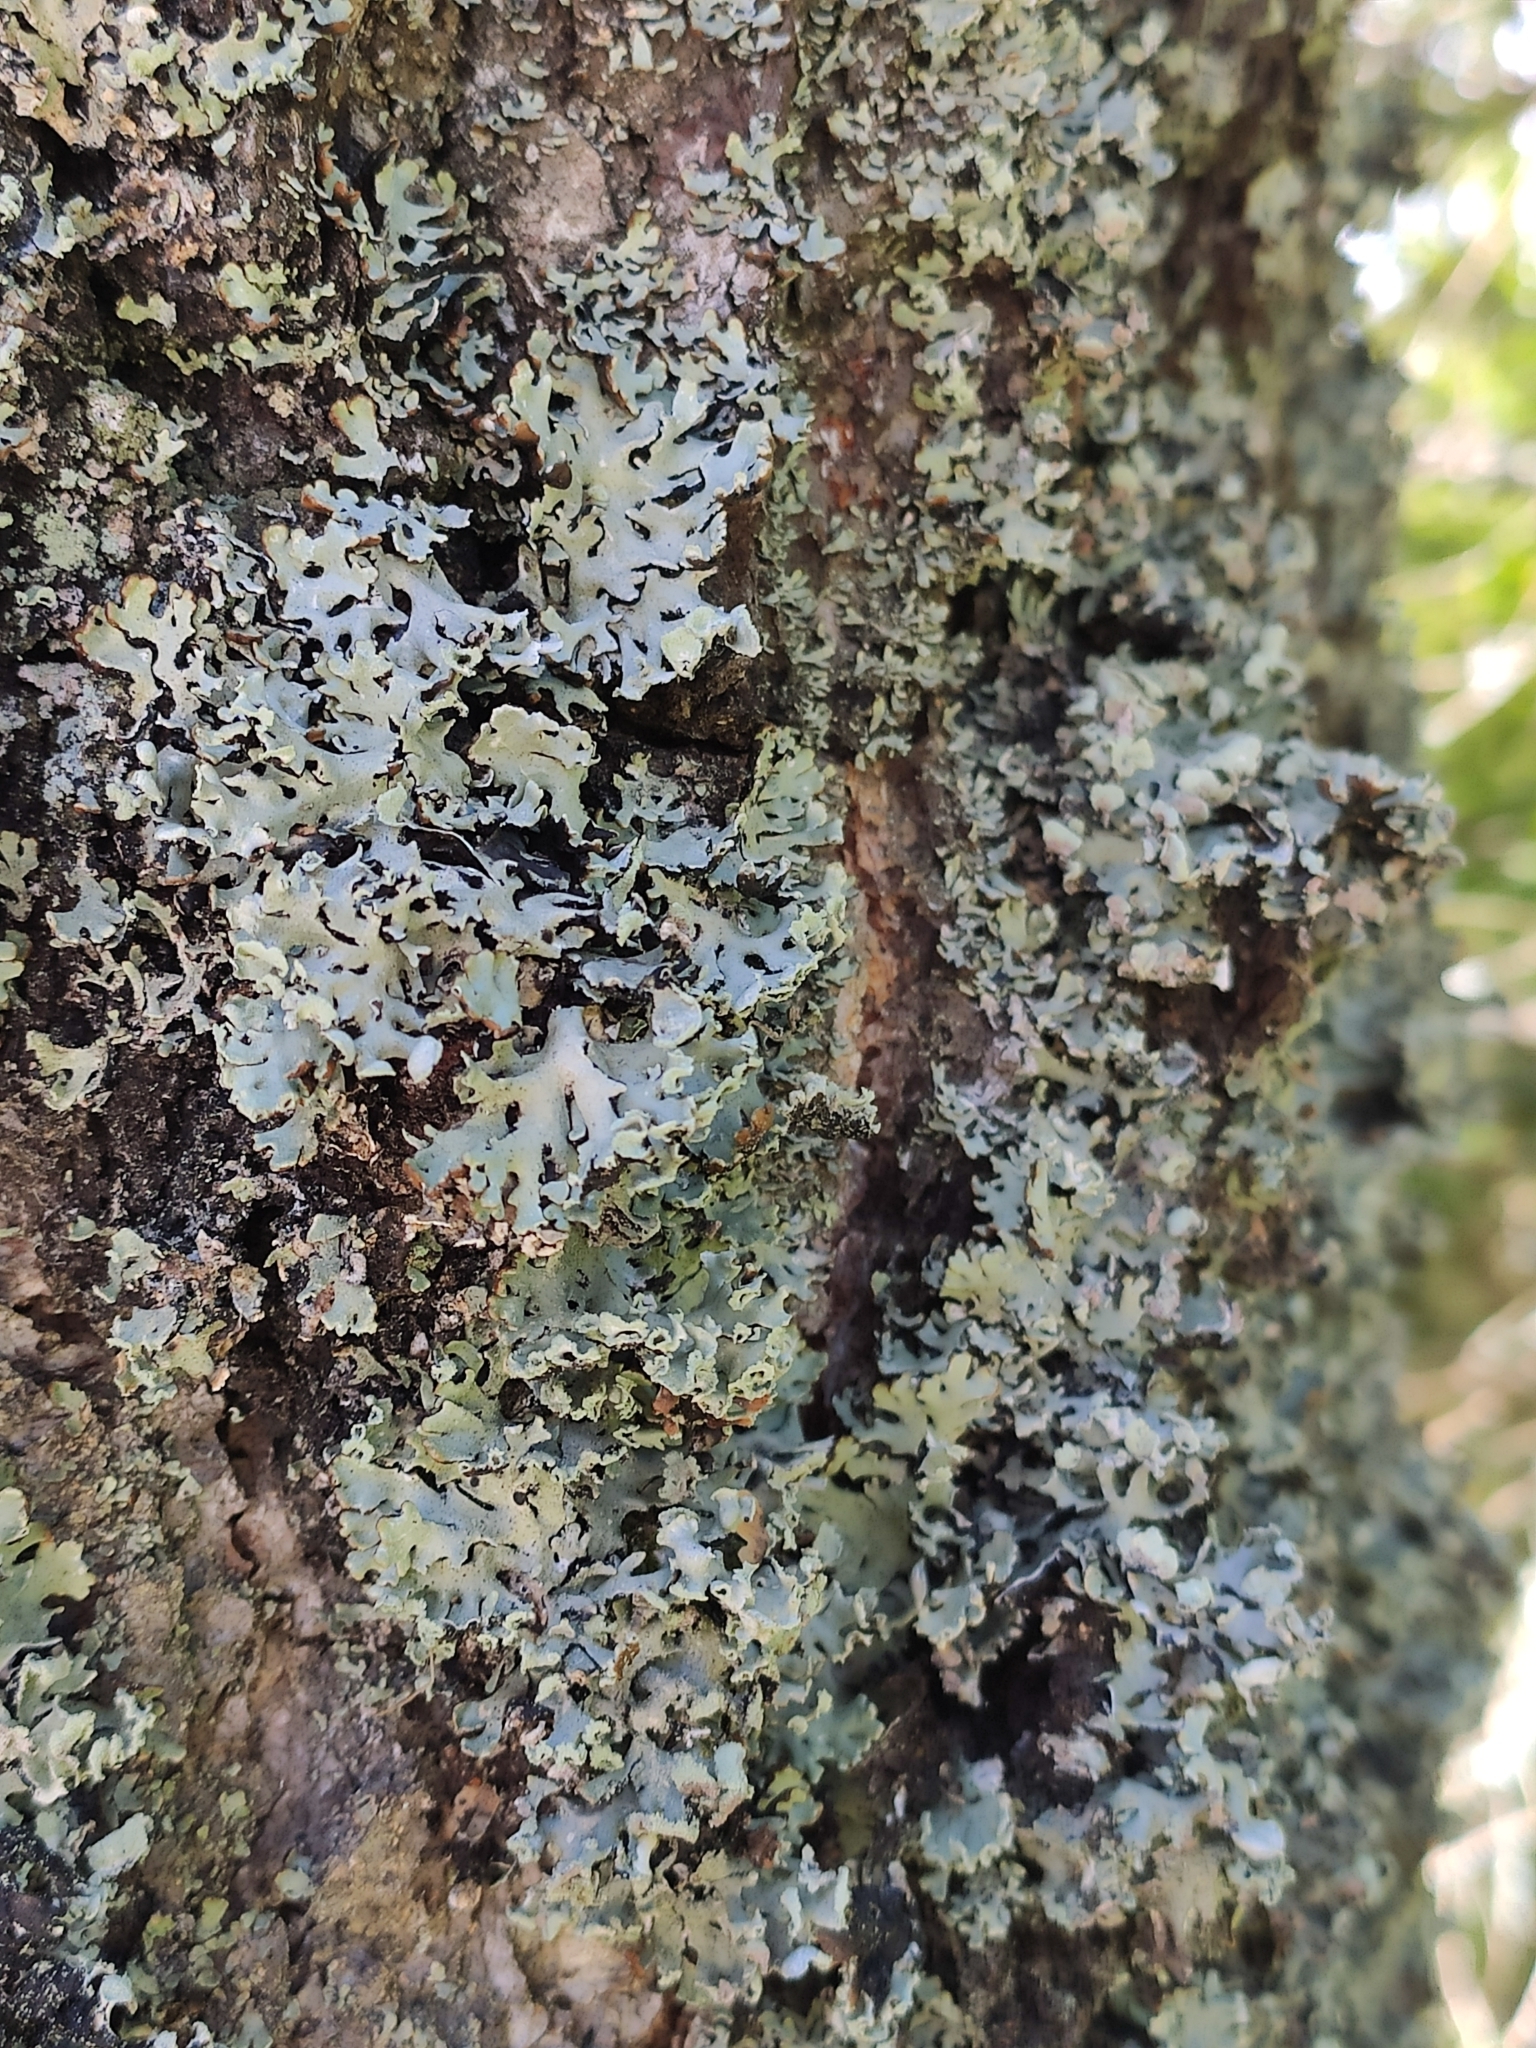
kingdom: Fungi
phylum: Ascomycota
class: Lecanoromycetes
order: Lecanorales
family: Parmeliaceae
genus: Hypogymnia
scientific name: Hypogymnia physodes
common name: Dark crottle
